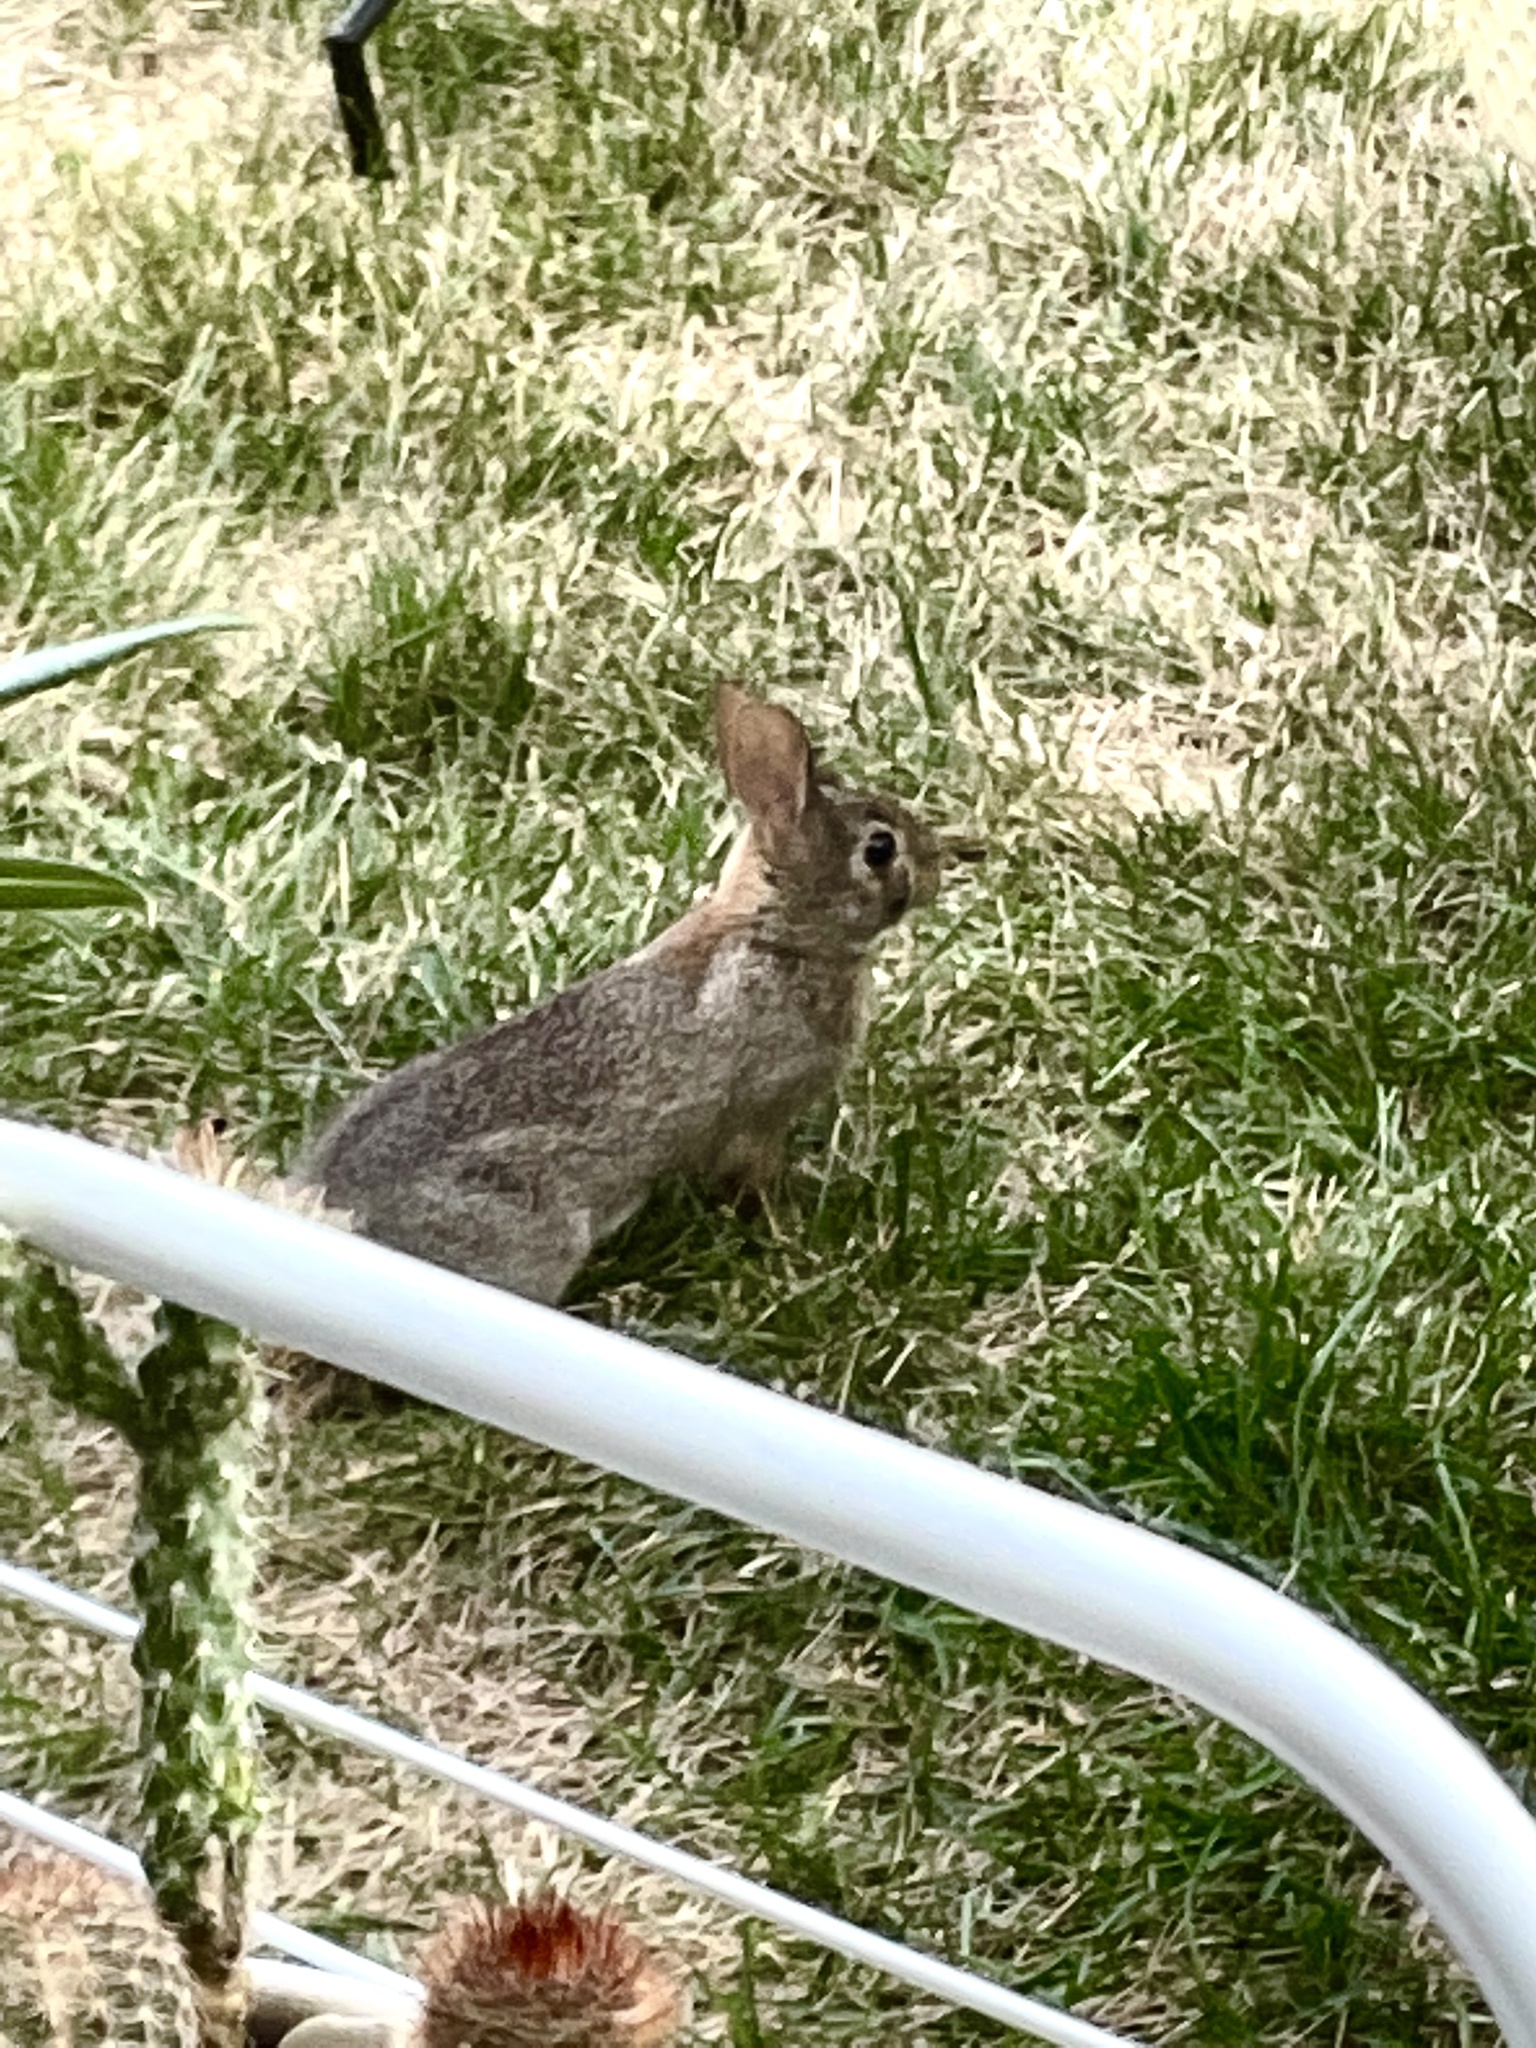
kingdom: Animalia
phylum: Chordata
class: Mammalia
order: Lagomorpha
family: Leporidae
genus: Sylvilagus
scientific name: Sylvilagus floridanus
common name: Eastern cottontail
